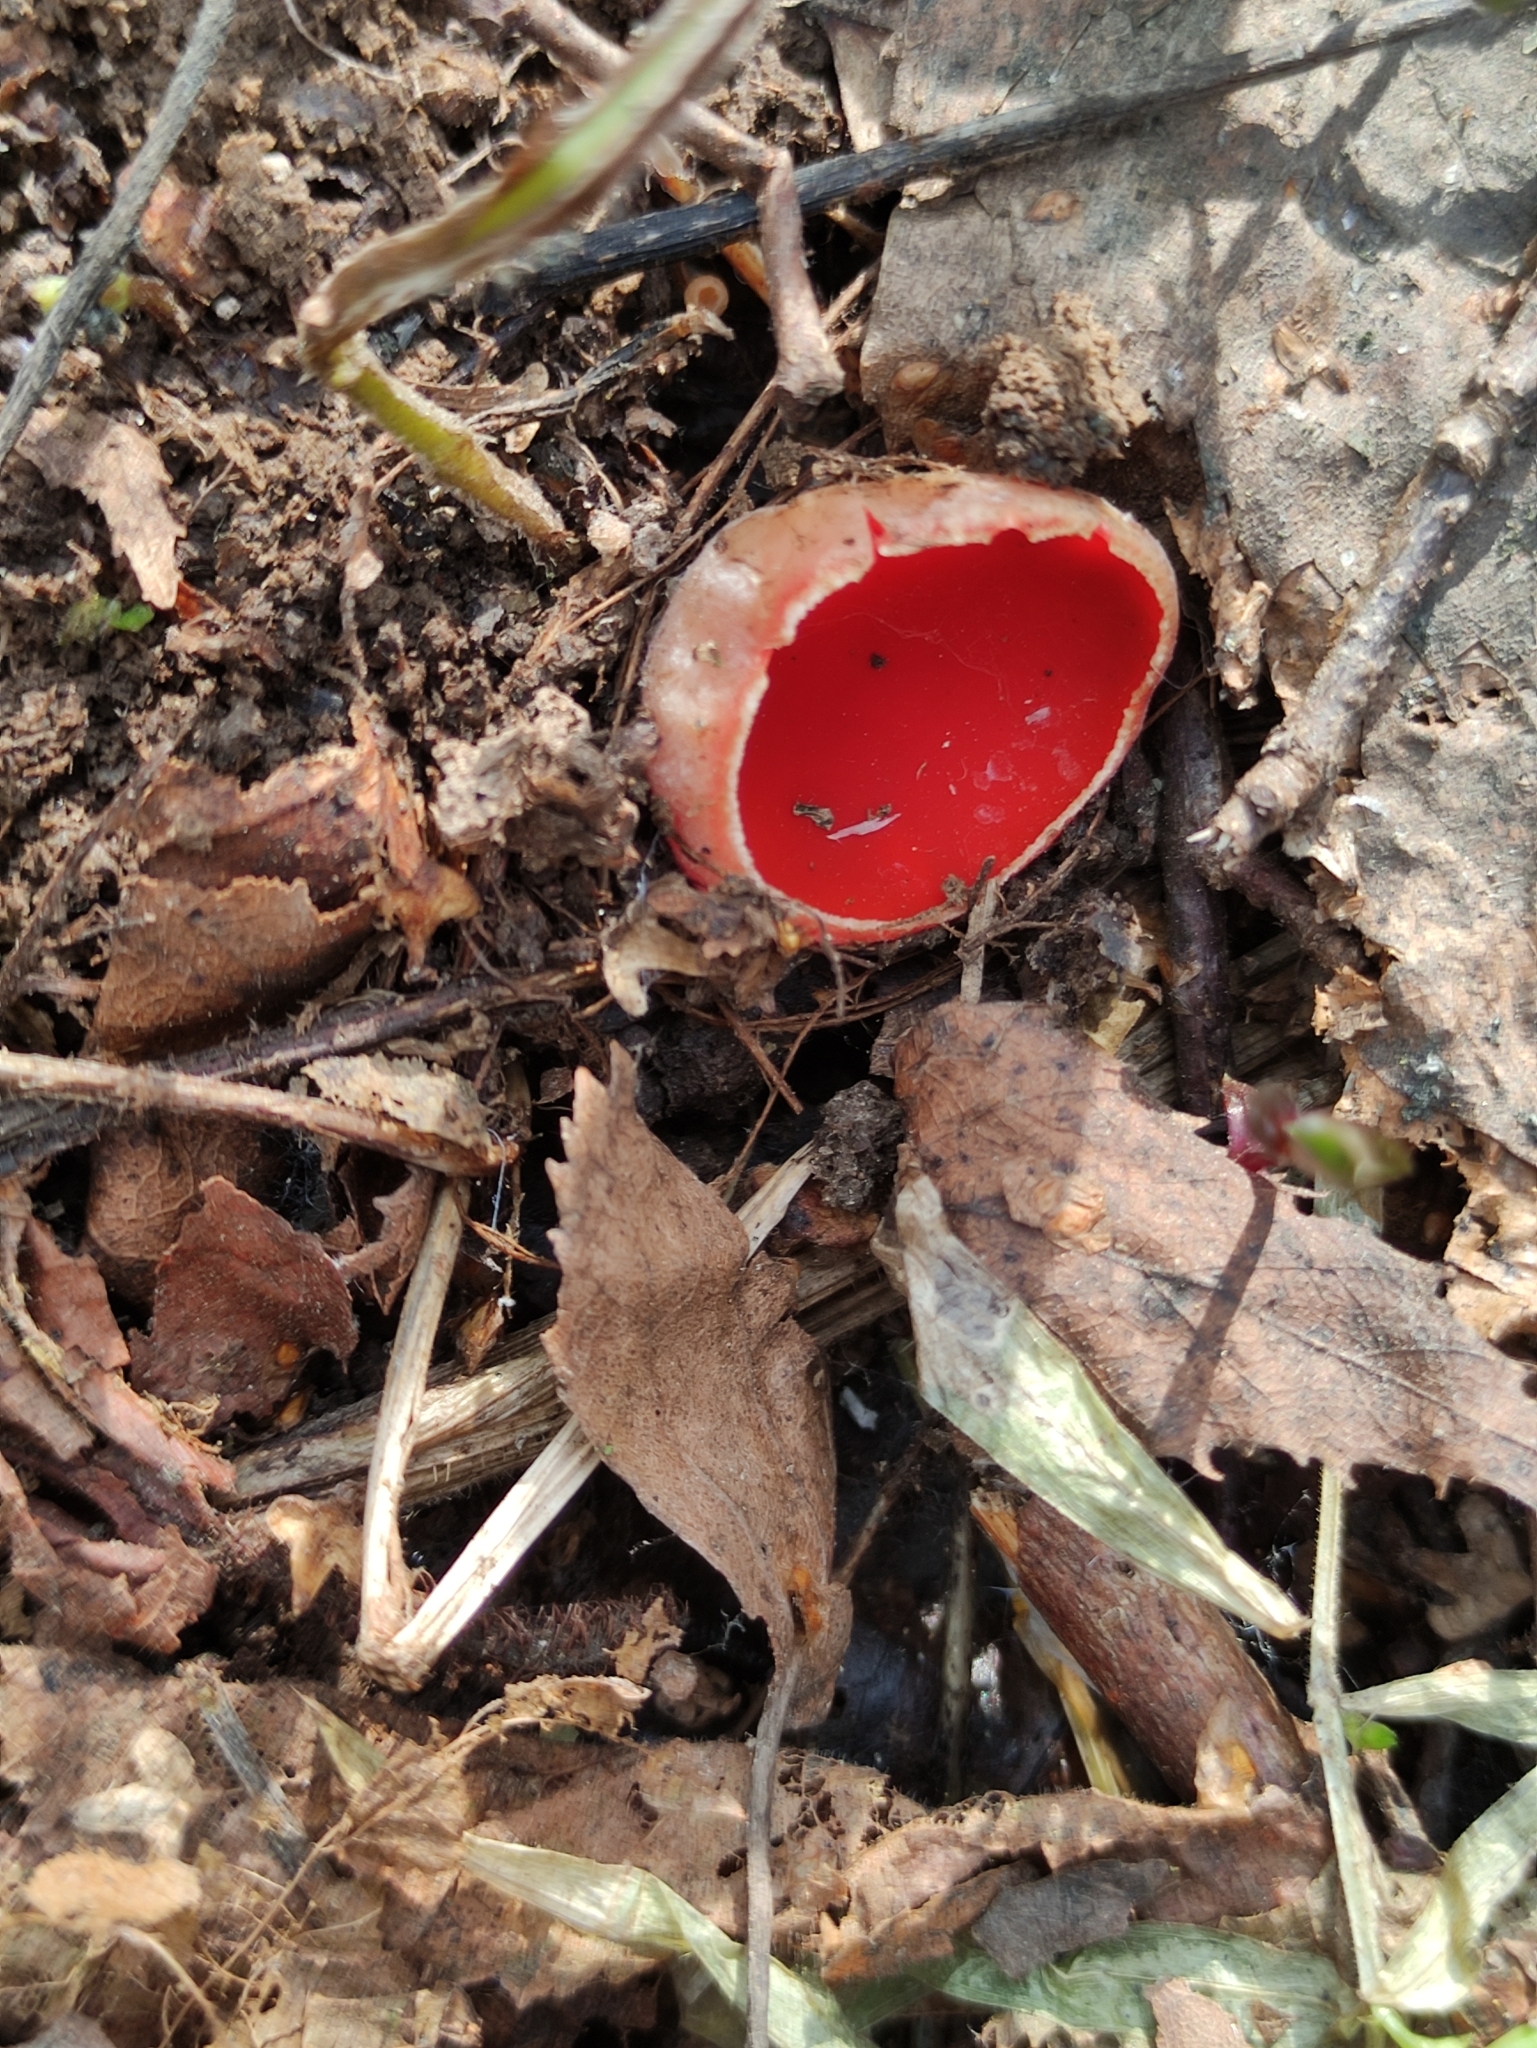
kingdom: Fungi
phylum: Ascomycota
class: Pezizomycetes
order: Pezizales
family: Sarcoscyphaceae
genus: Sarcoscypha
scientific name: Sarcoscypha austriaca
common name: Scarlet elfcup
